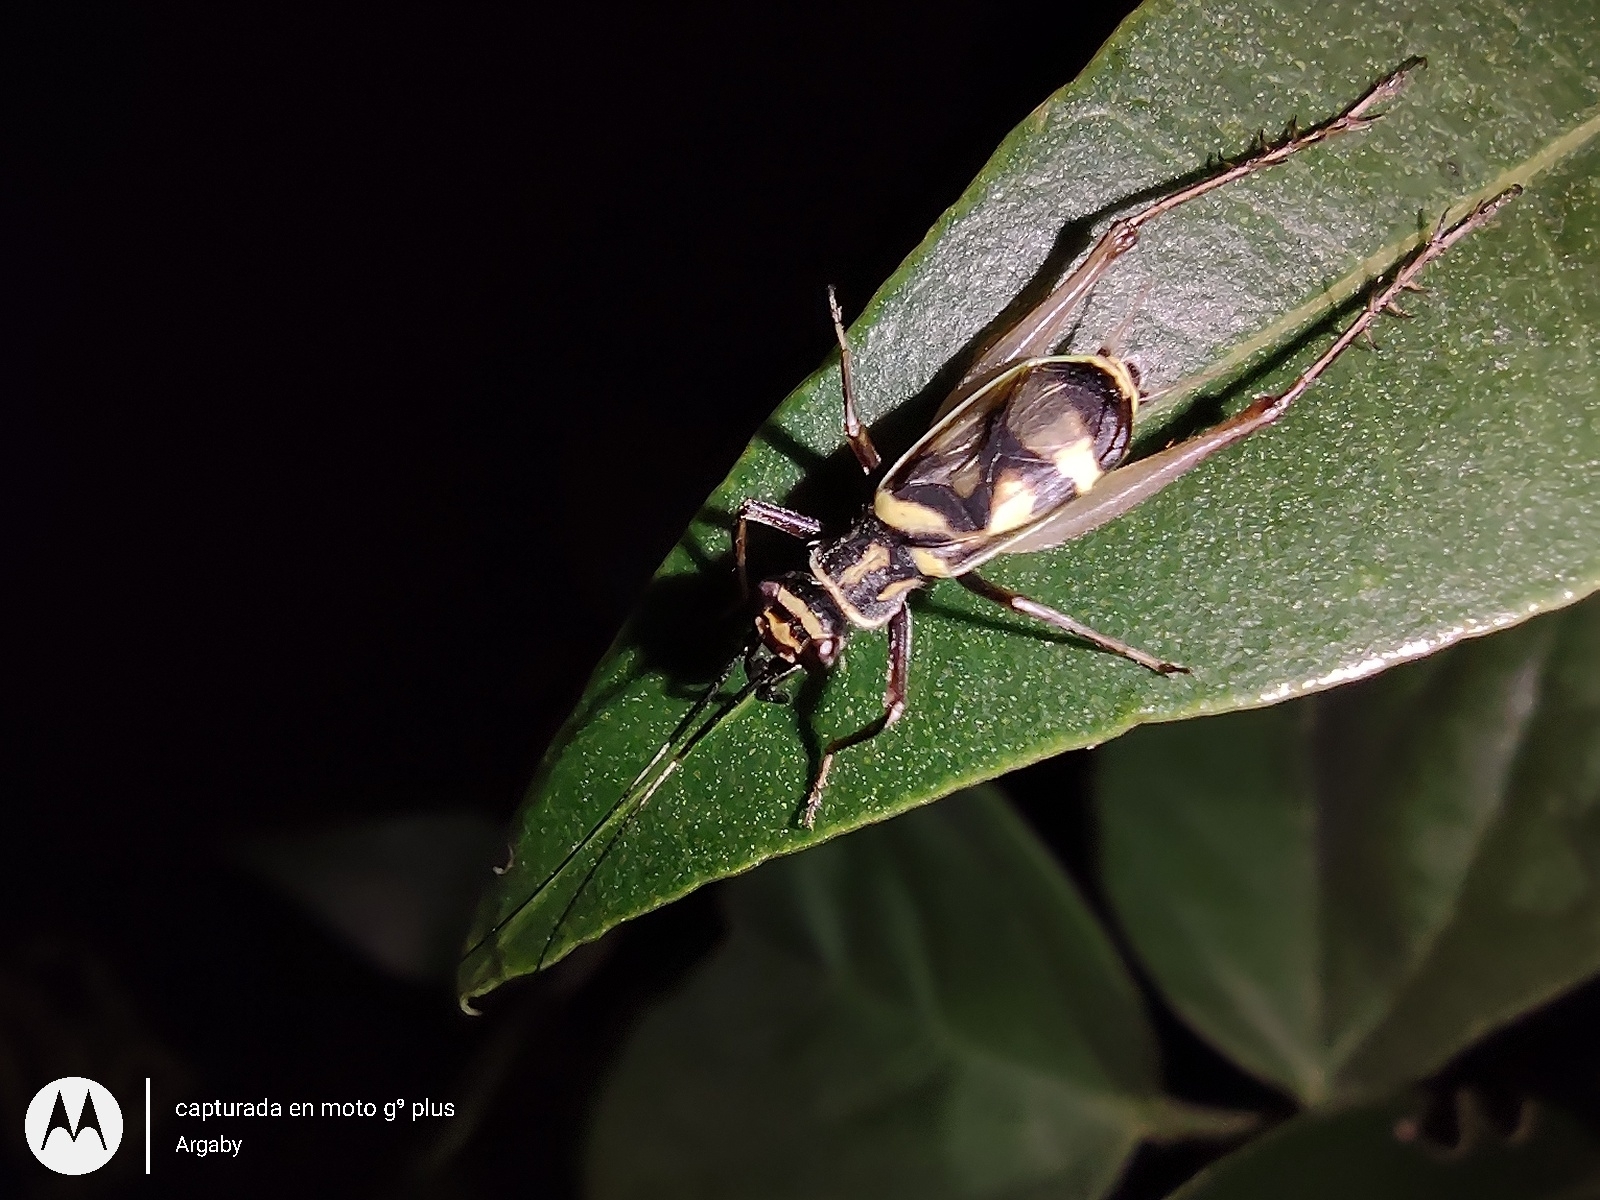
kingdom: Animalia
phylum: Arthropoda
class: Insecta
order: Orthoptera
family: Trigonidiidae
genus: Phylloscyrtus
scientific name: Phylloscyrtus amoenus
